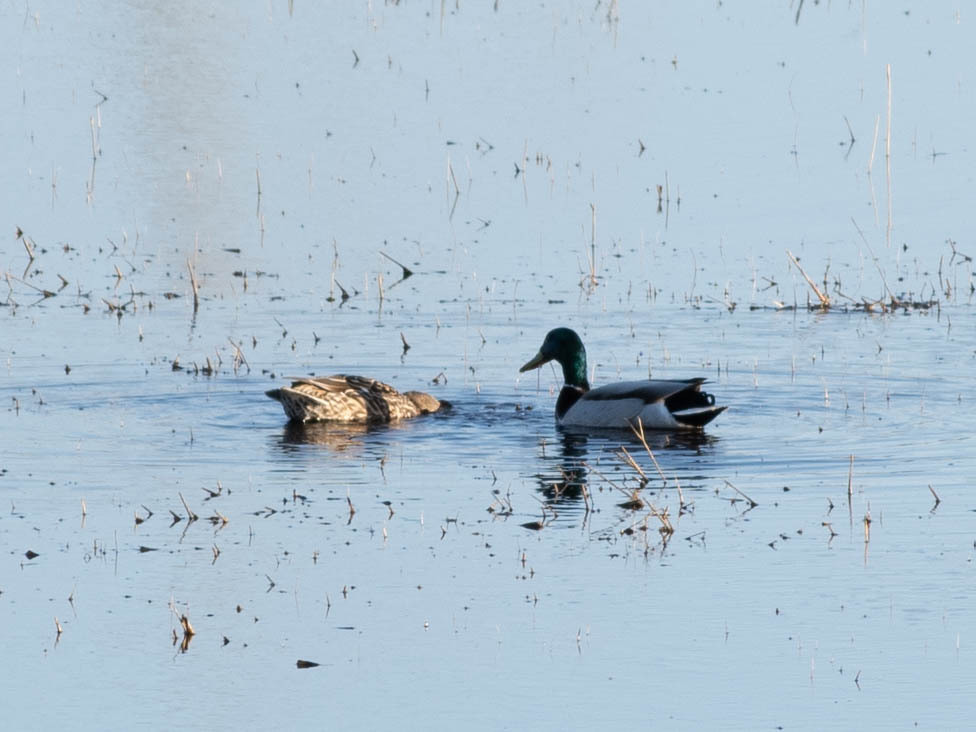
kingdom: Animalia
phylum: Chordata
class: Aves
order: Anseriformes
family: Anatidae
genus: Anas
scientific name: Anas platyrhynchos
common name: Mallard
